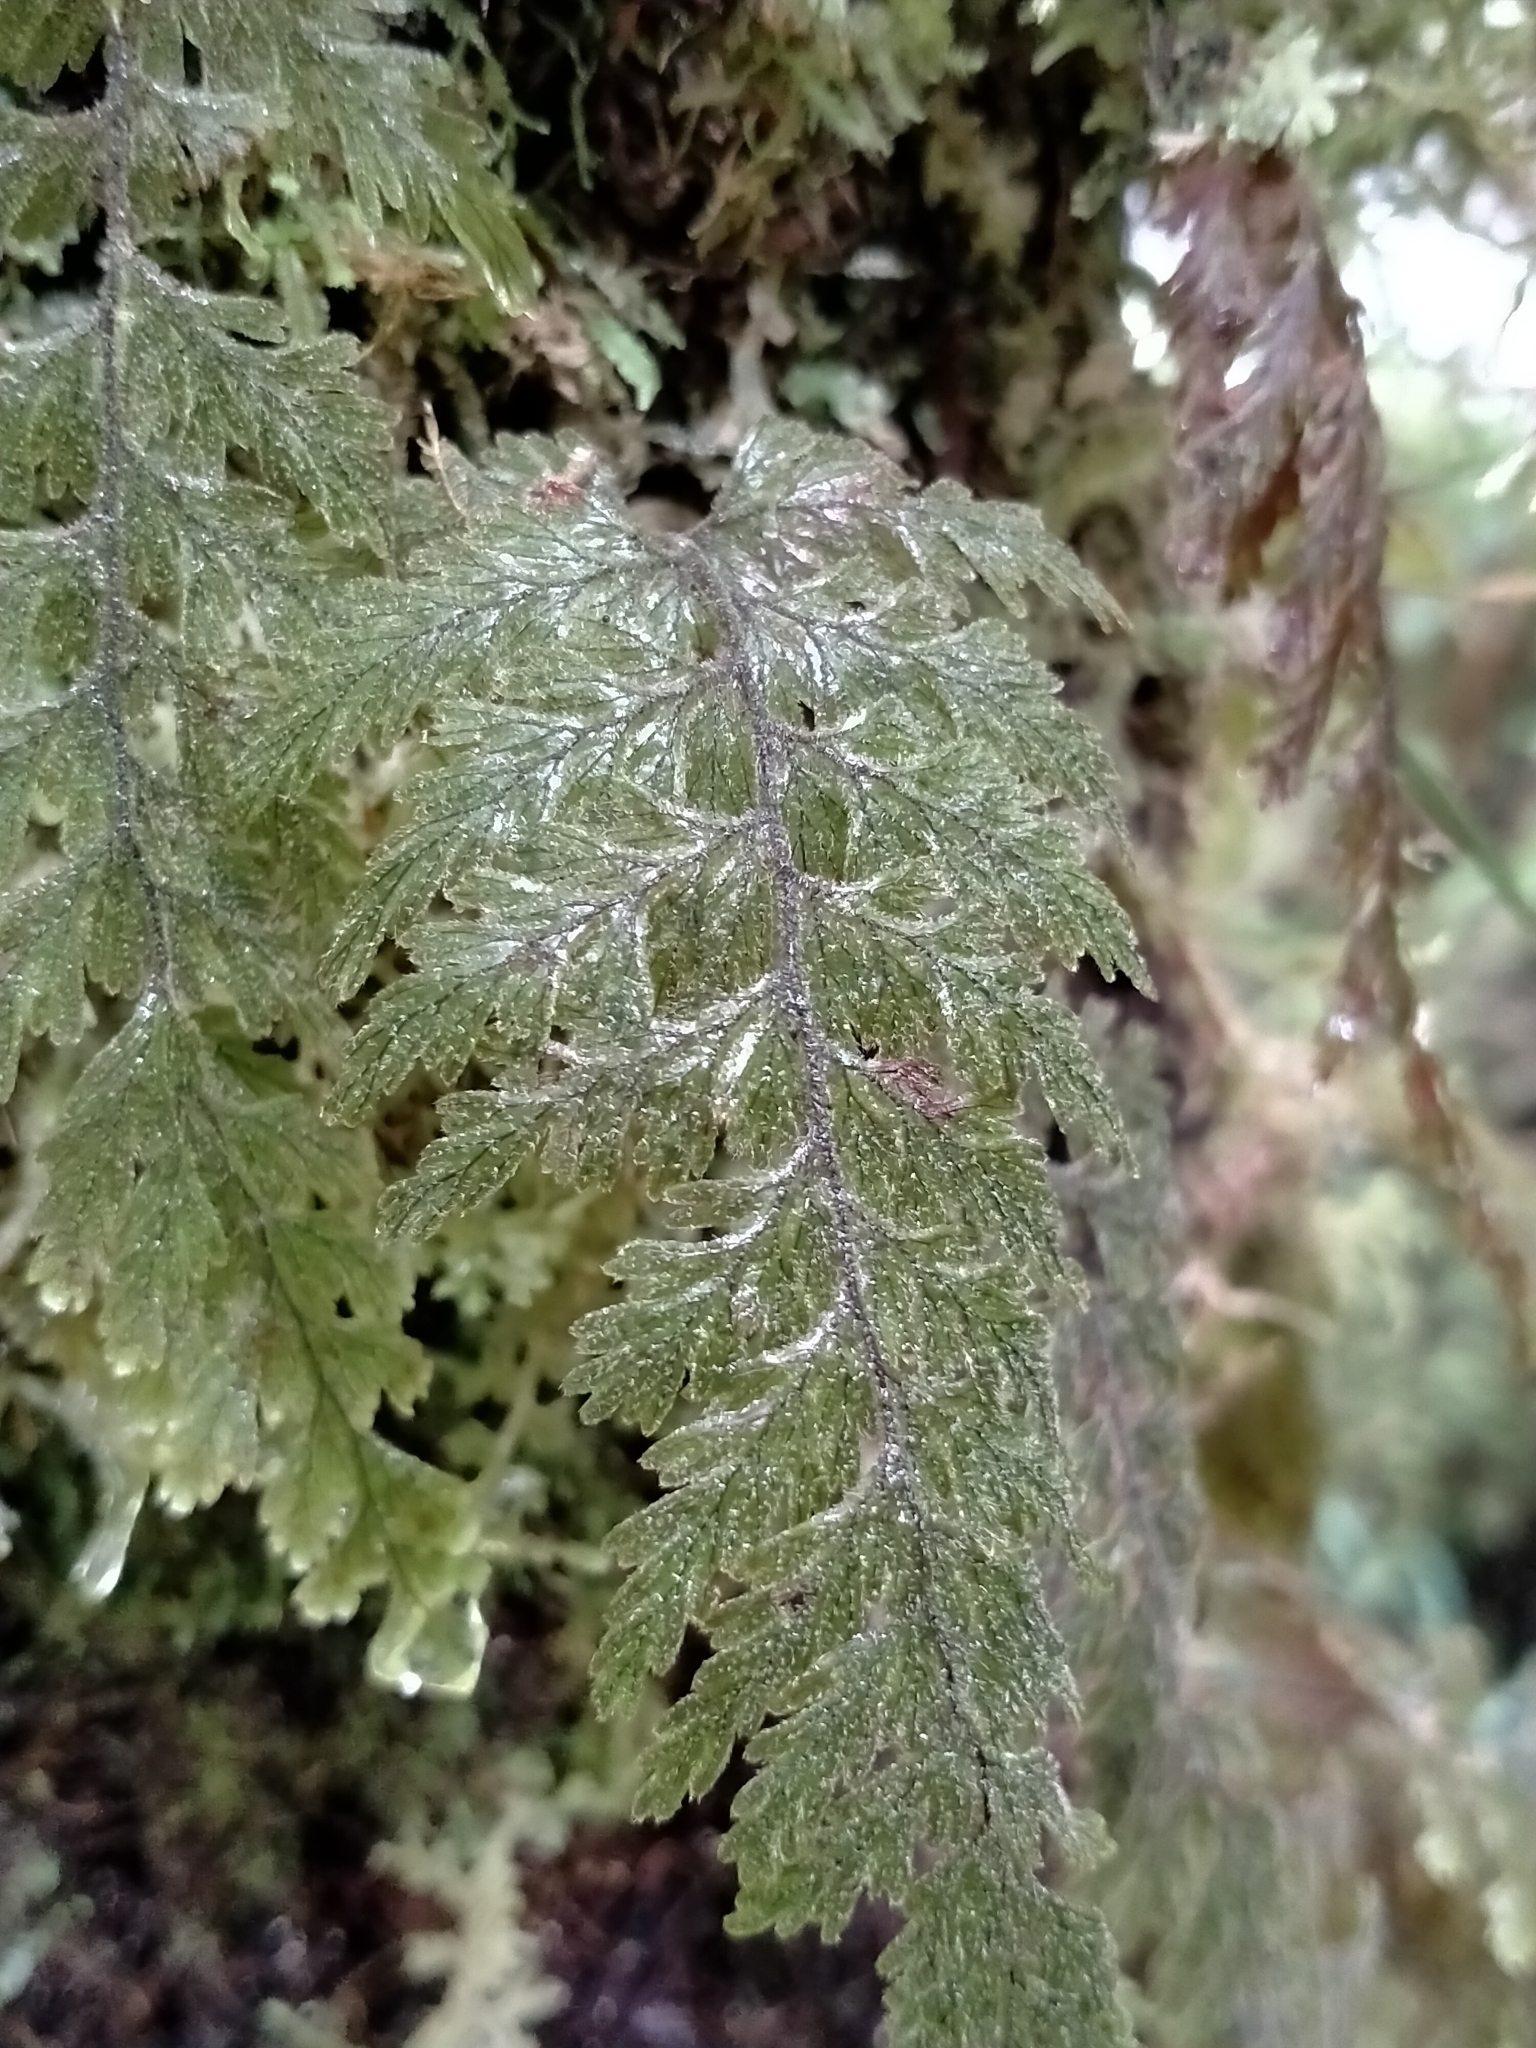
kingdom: Plantae
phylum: Tracheophyta
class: Polypodiopsida
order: Hymenophyllales
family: Hymenophyllaceae
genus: Hymenophyllum
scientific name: Hymenophyllum frankliniae
